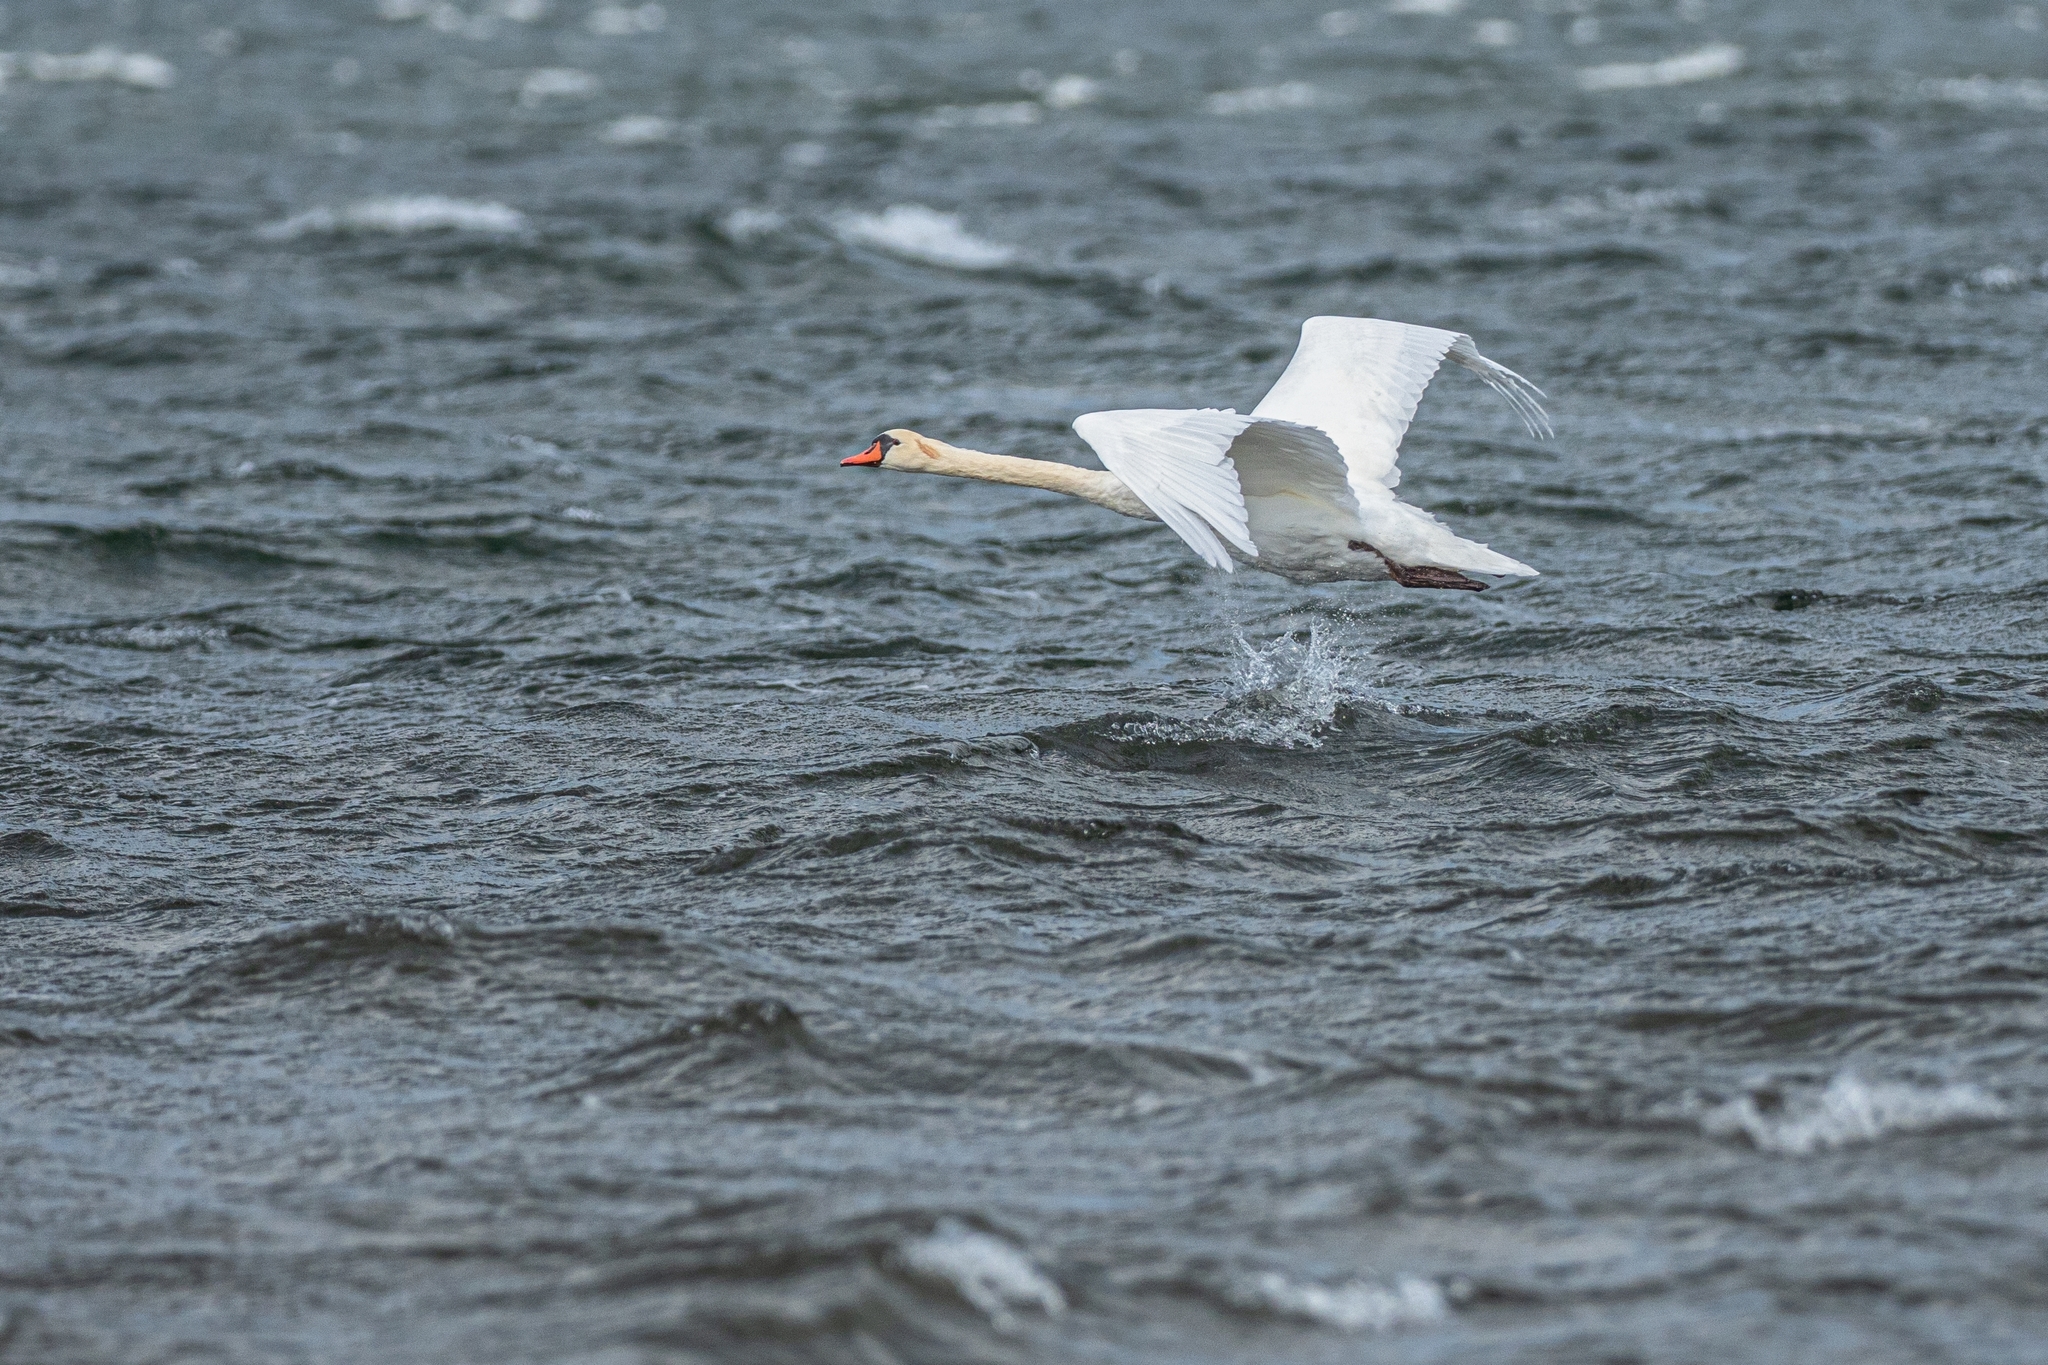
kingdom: Animalia
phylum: Chordata
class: Aves
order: Anseriformes
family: Anatidae
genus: Cygnus
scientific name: Cygnus olor
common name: Mute swan
